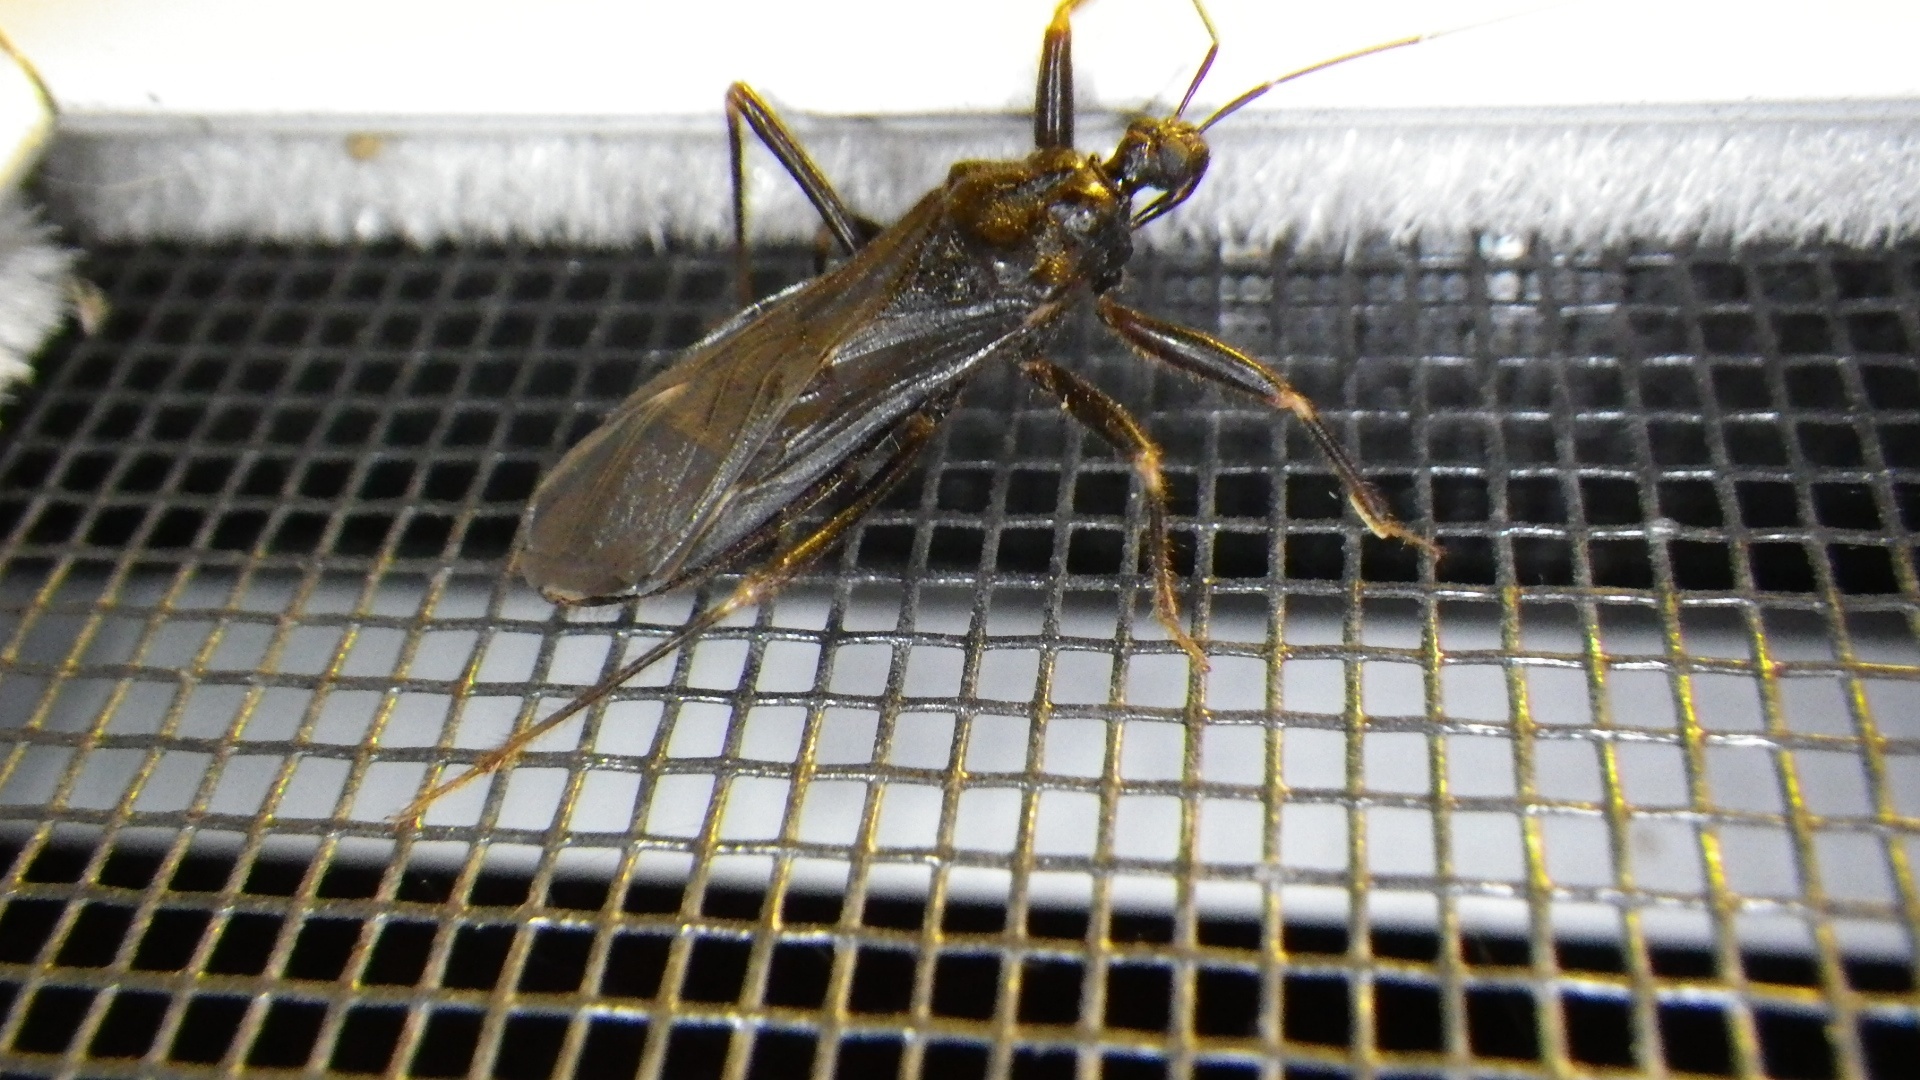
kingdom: Animalia
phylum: Arthropoda
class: Insecta
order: Hemiptera
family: Reduviidae
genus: Reduvius
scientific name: Reduvius personatus
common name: Masked hunter
